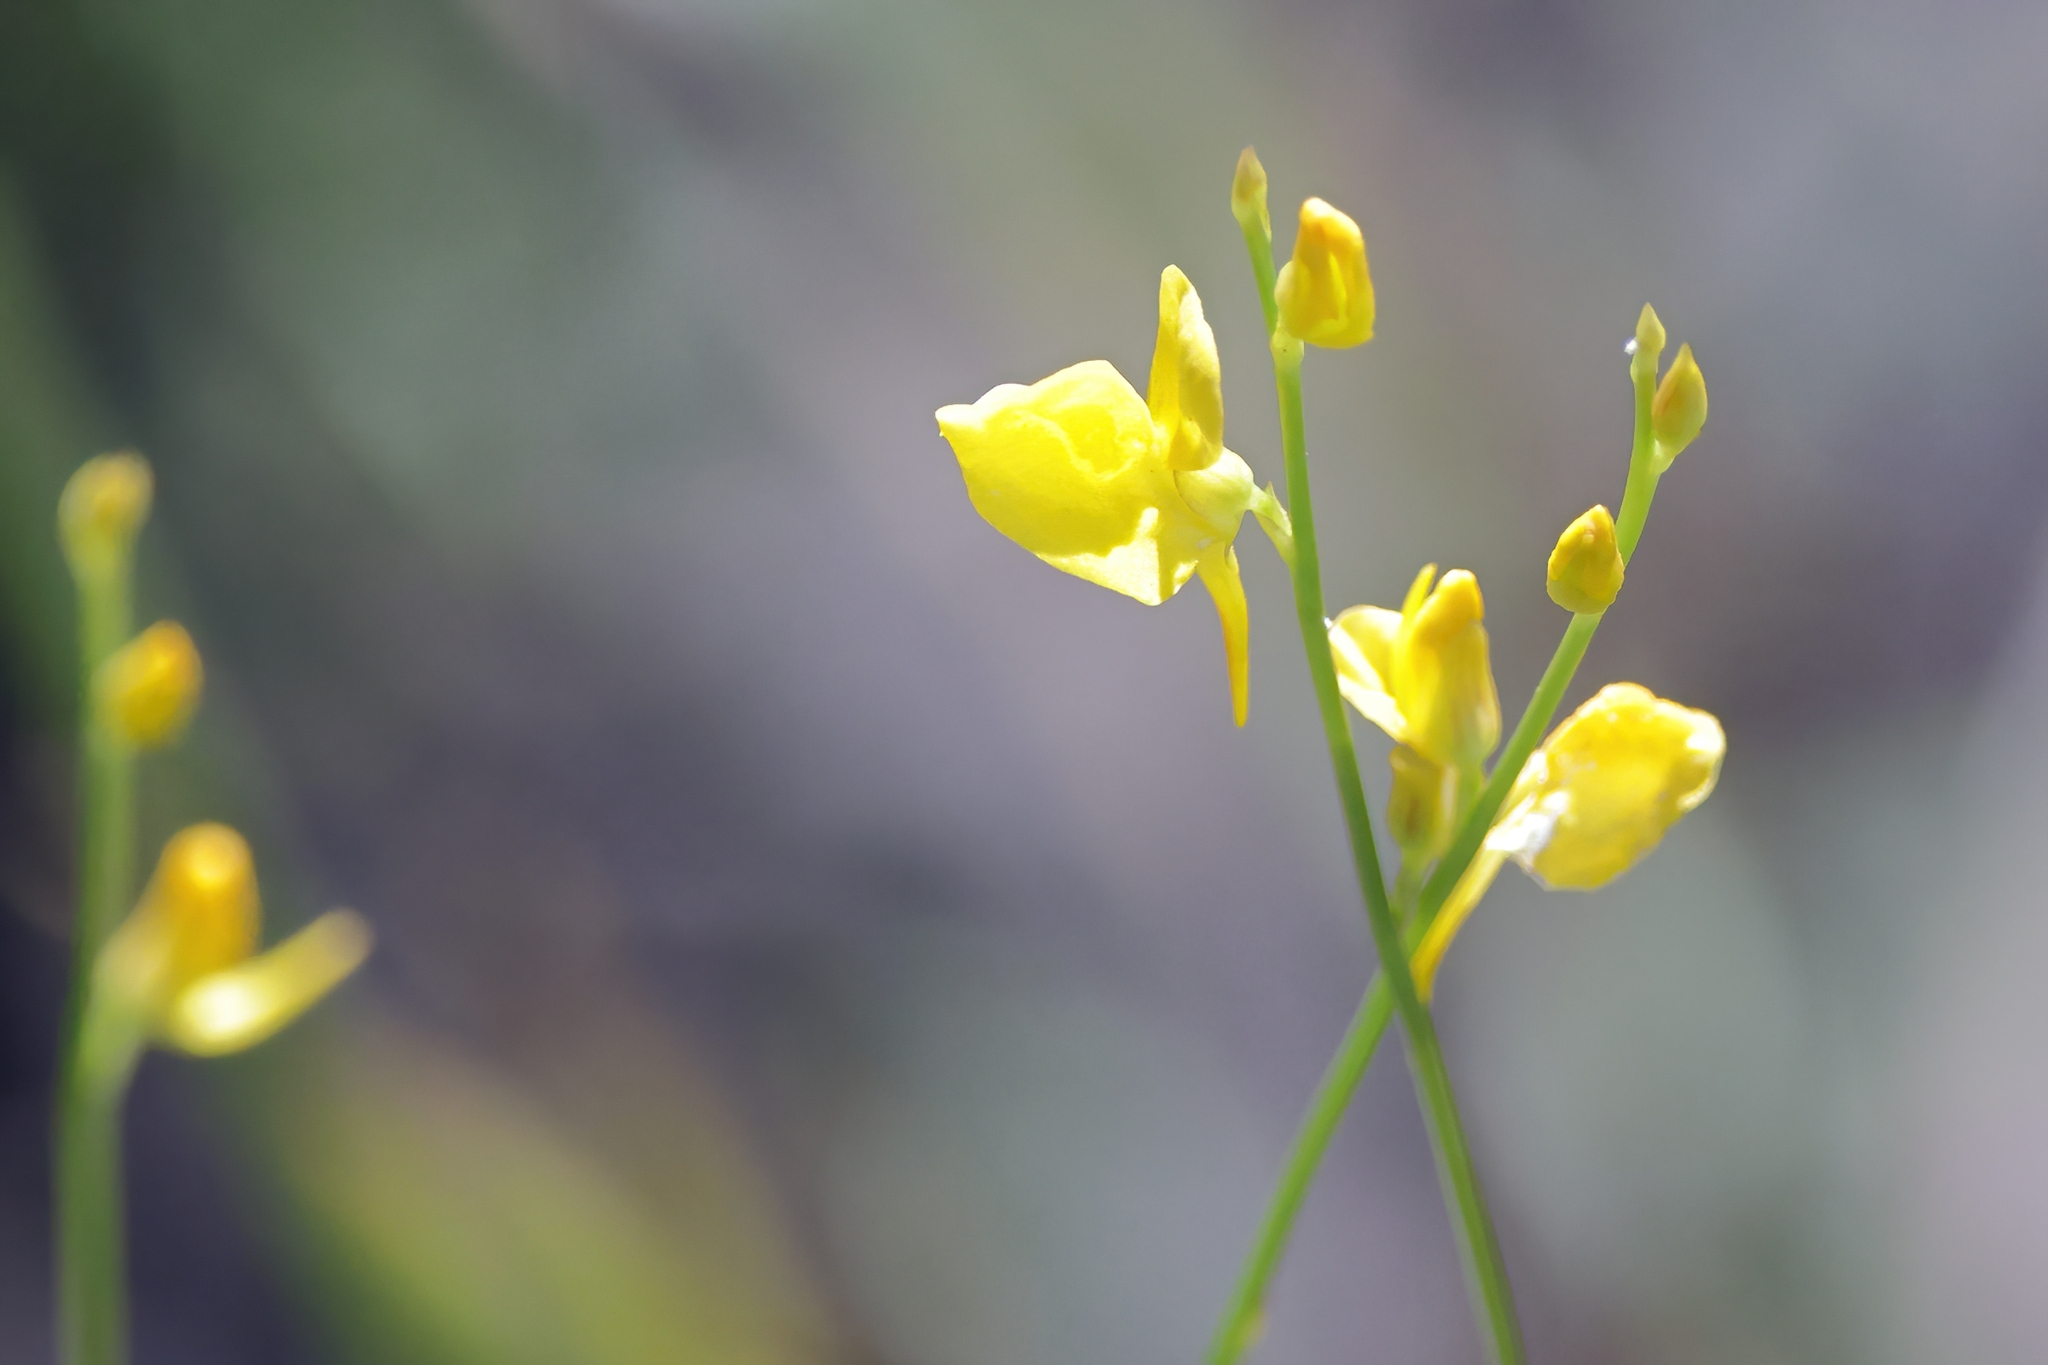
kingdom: Plantae
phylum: Tracheophyta
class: Magnoliopsida
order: Lamiales
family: Lentibulariaceae
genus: Utricularia
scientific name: Utricularia juncea
